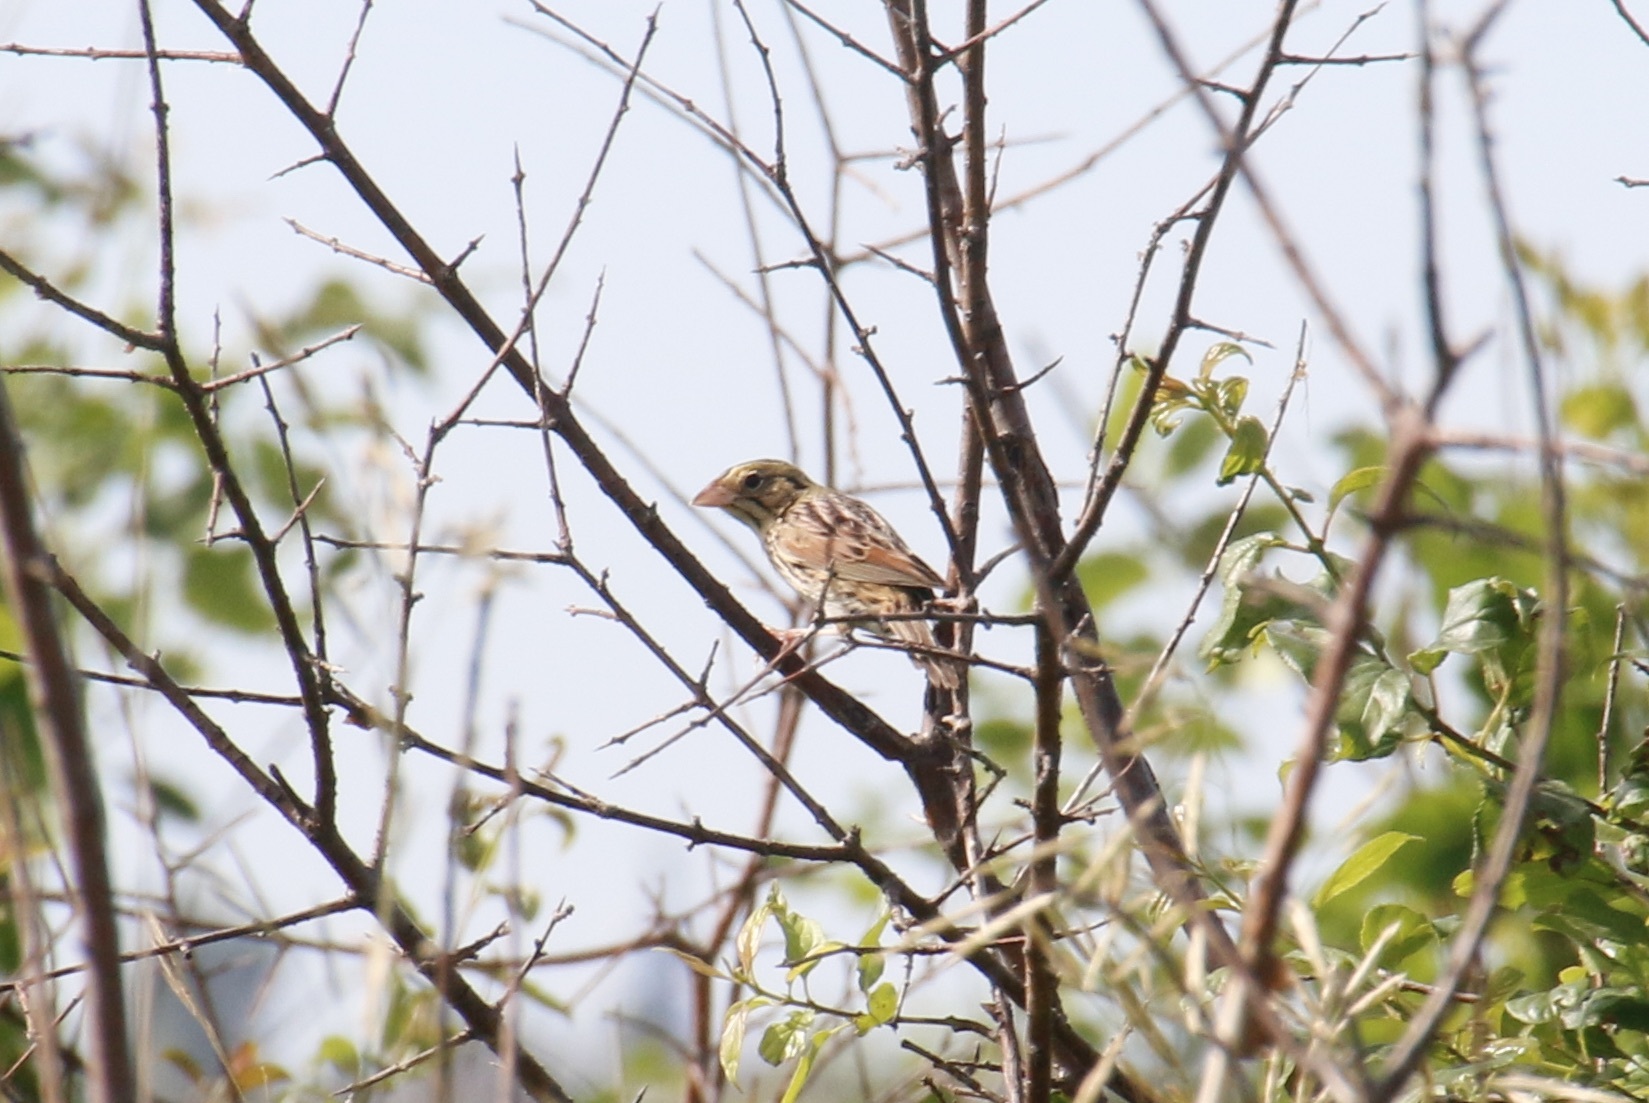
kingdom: Animalia
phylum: Chordata
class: Aves
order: Passeriformes
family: Passerellidae
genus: Centronyx
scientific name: Centronyx henslowii
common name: Henslow's sparrow
